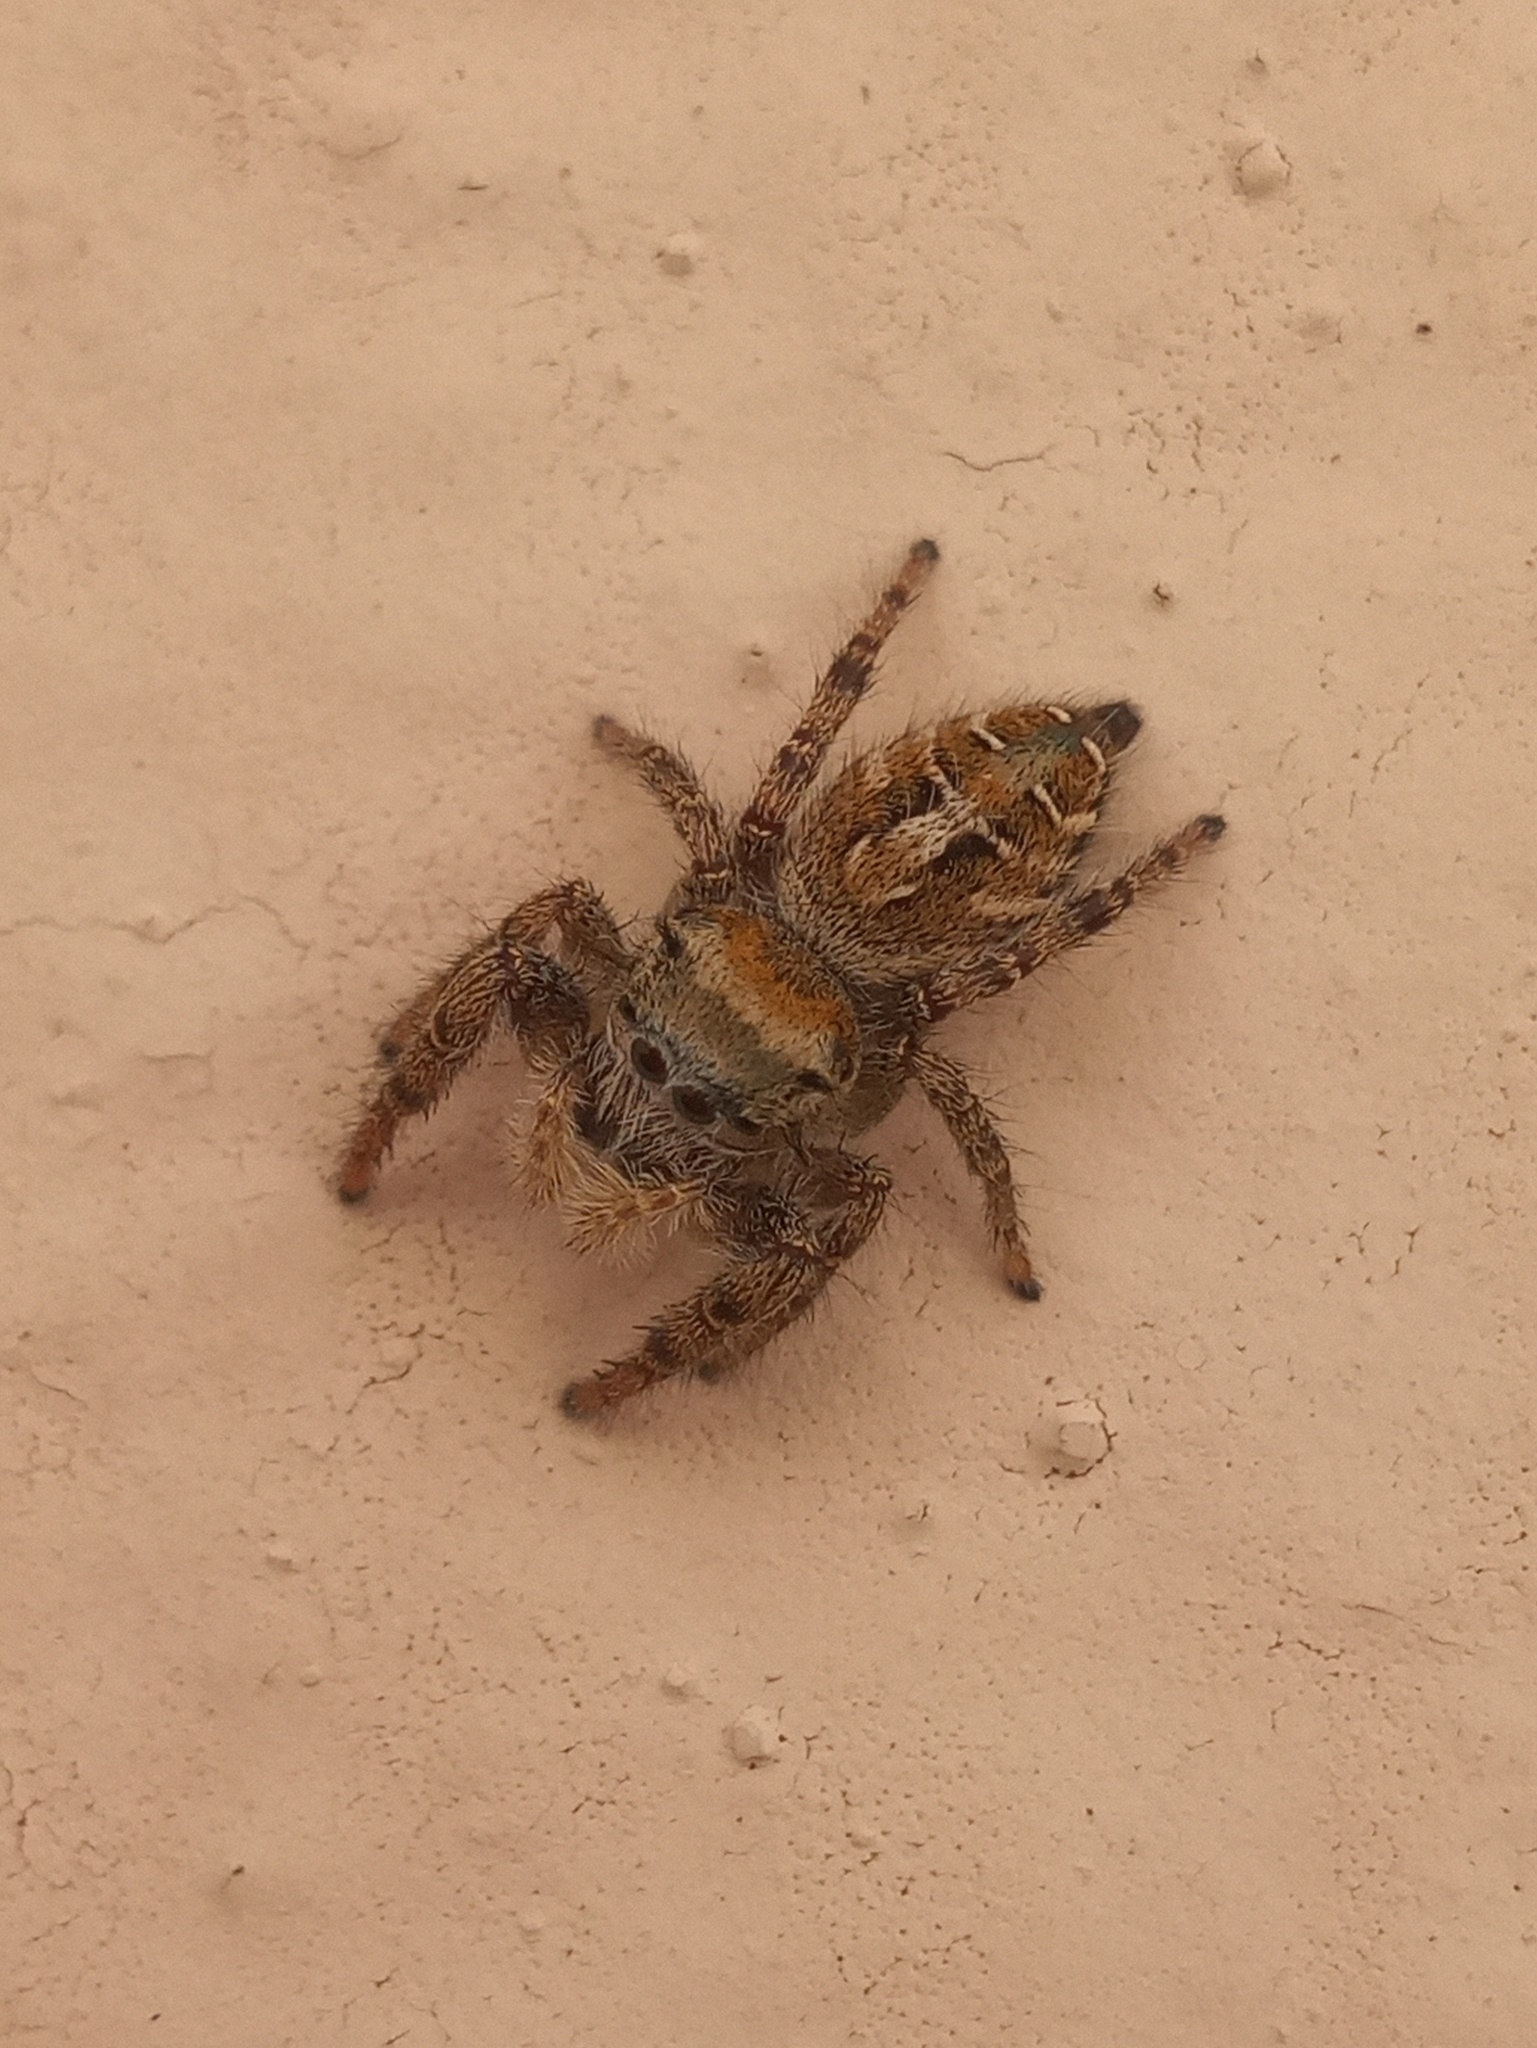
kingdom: Animalia
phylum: Arthropoda
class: Arachnida
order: Araneae
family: Salticidae
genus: Phidippus
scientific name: Phidippus arizonensis
